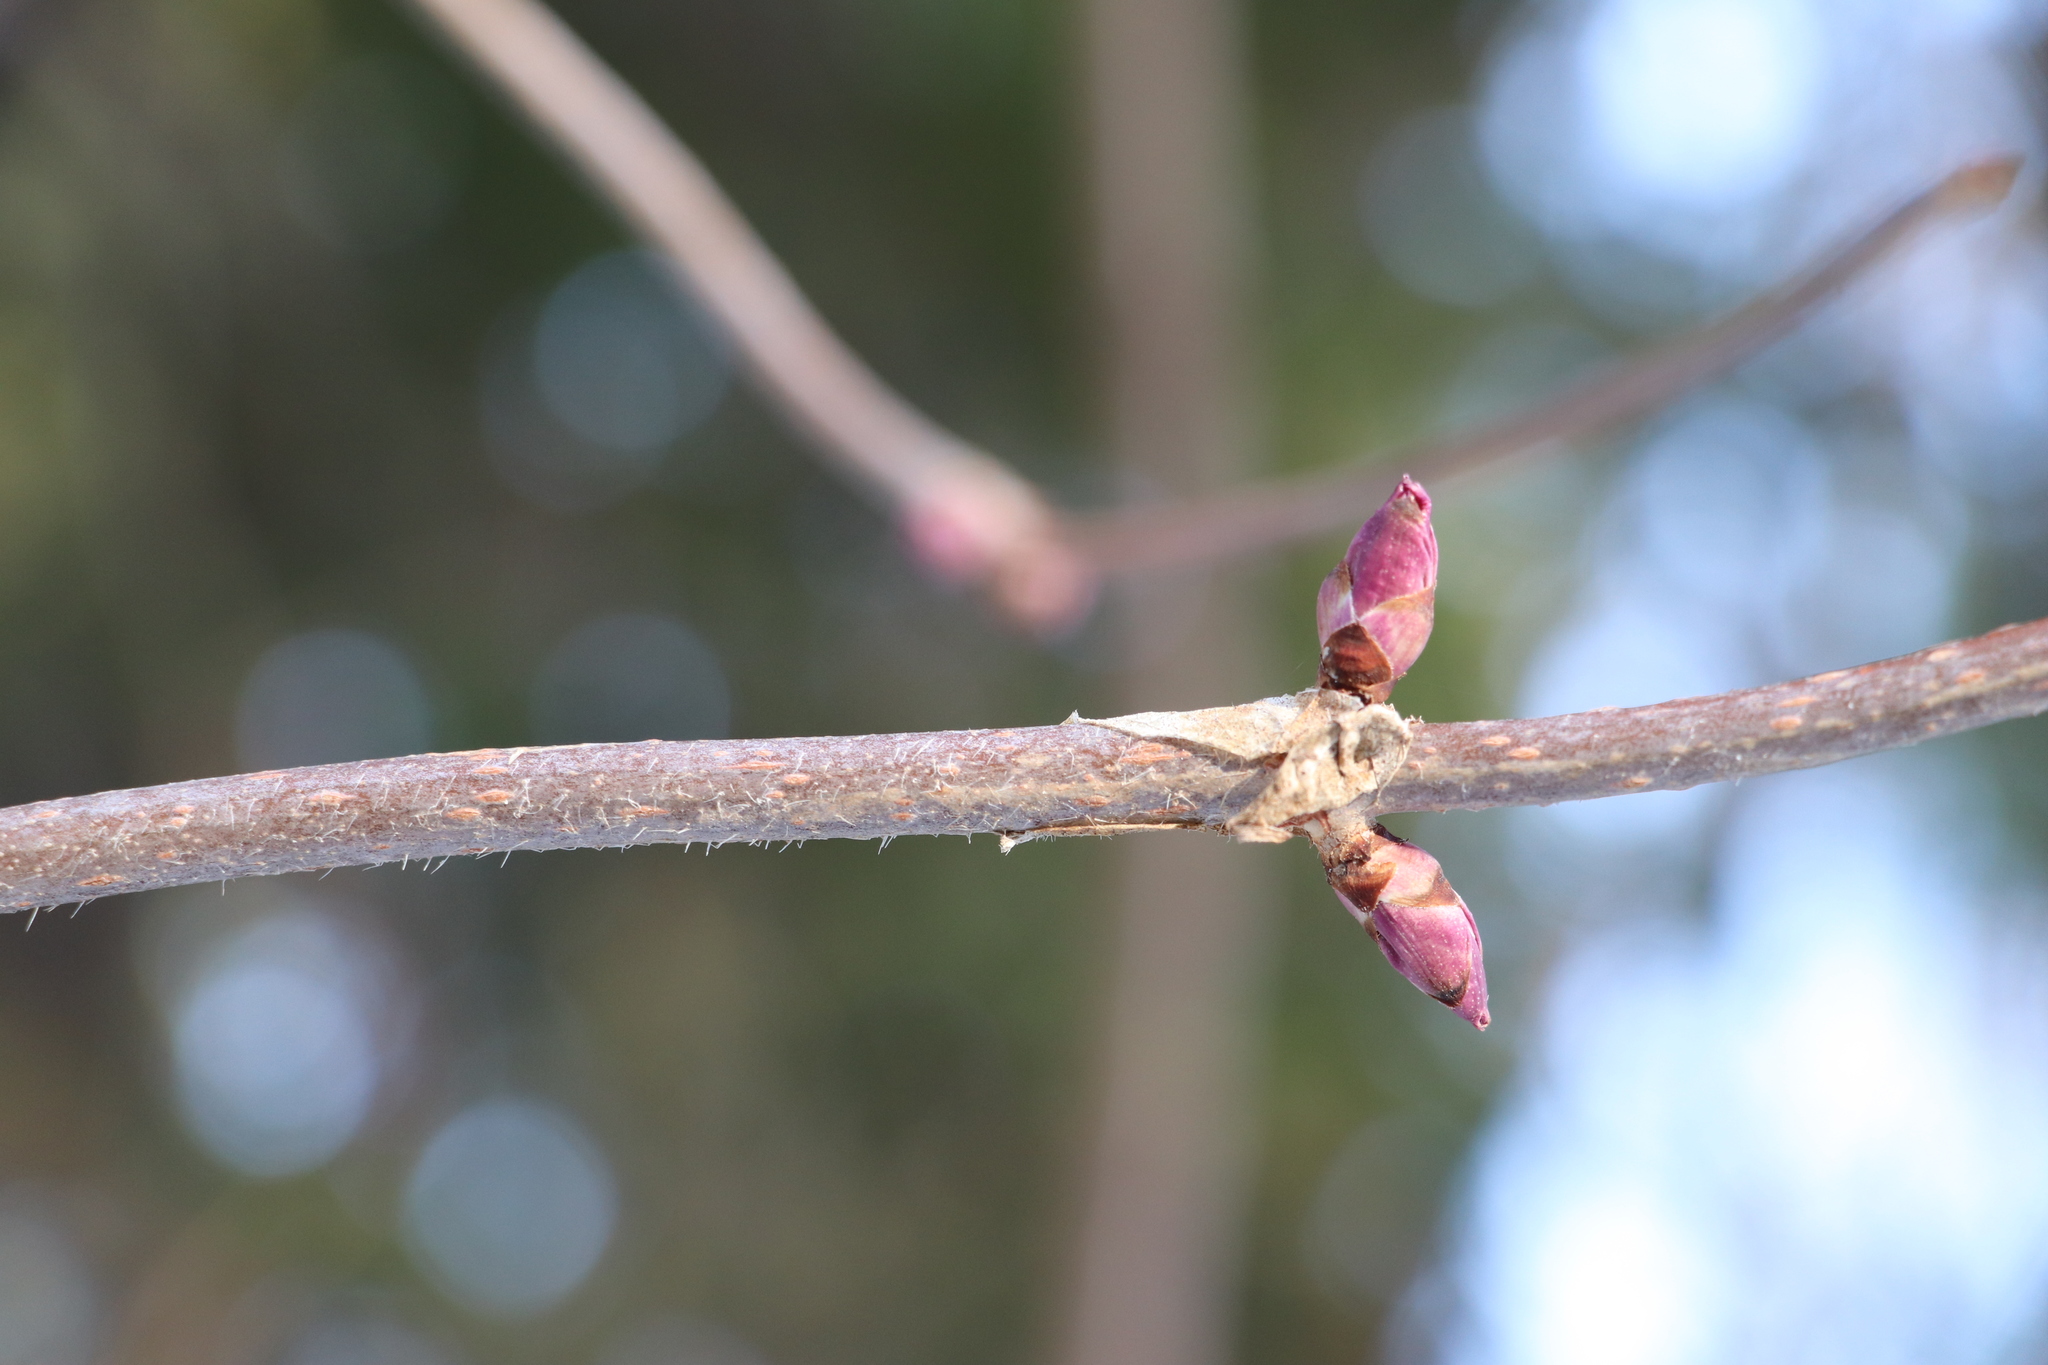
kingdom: Plantae
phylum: Tracheophyta
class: Magnoliopsida
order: Dipsacales
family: Viburnaceae
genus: Sambucus
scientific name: Sambucus sibirica
